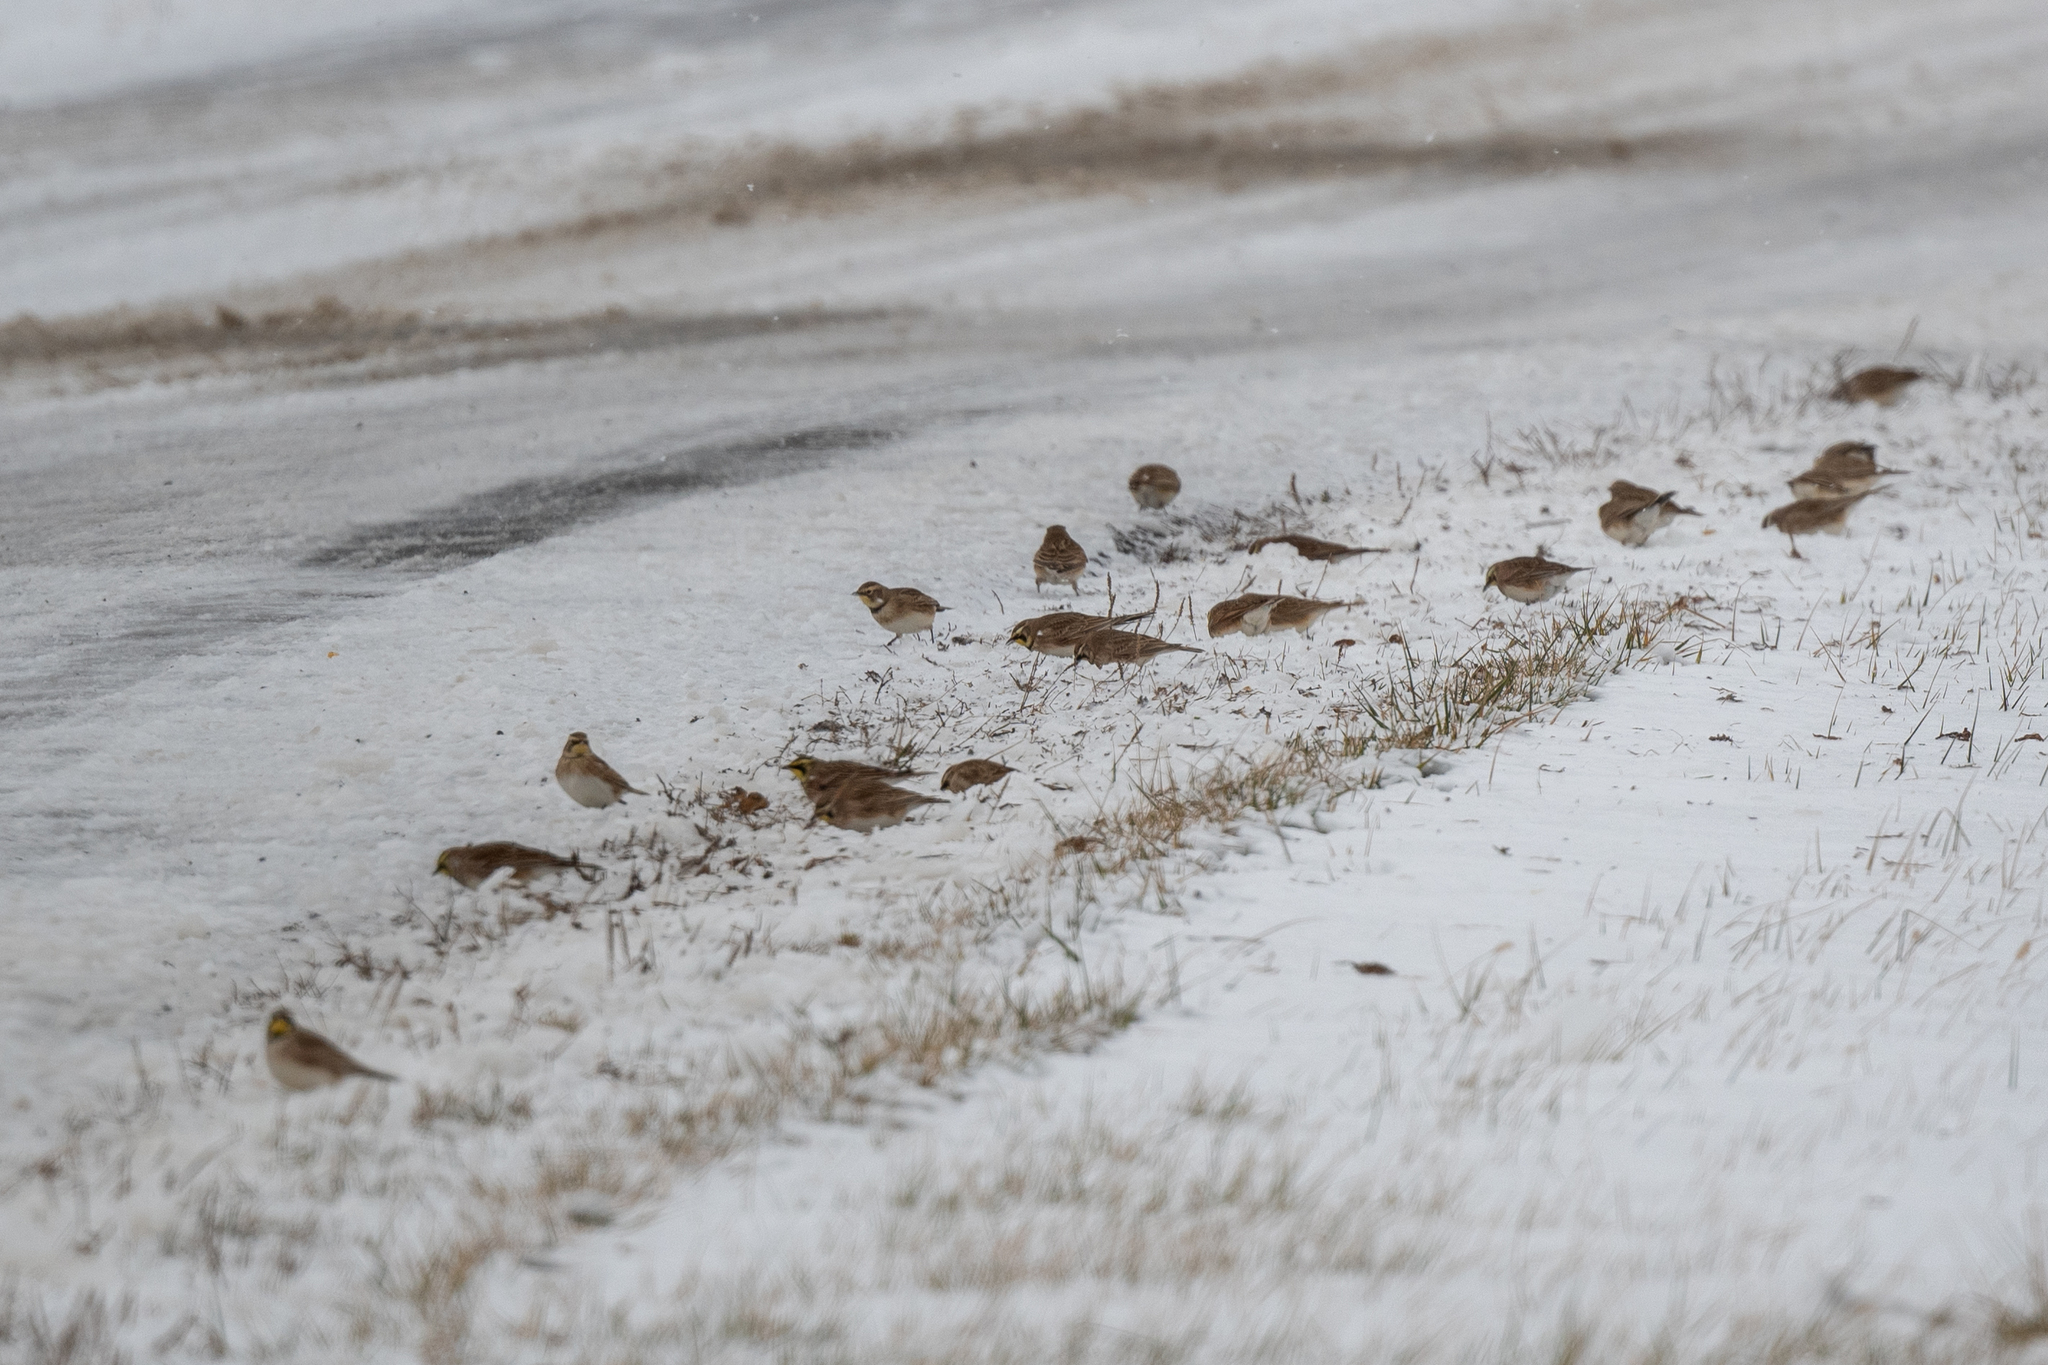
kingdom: Animalia
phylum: Chordata
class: Aves
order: Passeriformes
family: Alaudidae
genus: Eremophila
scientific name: Eremophila alpestris
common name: Horned lark
